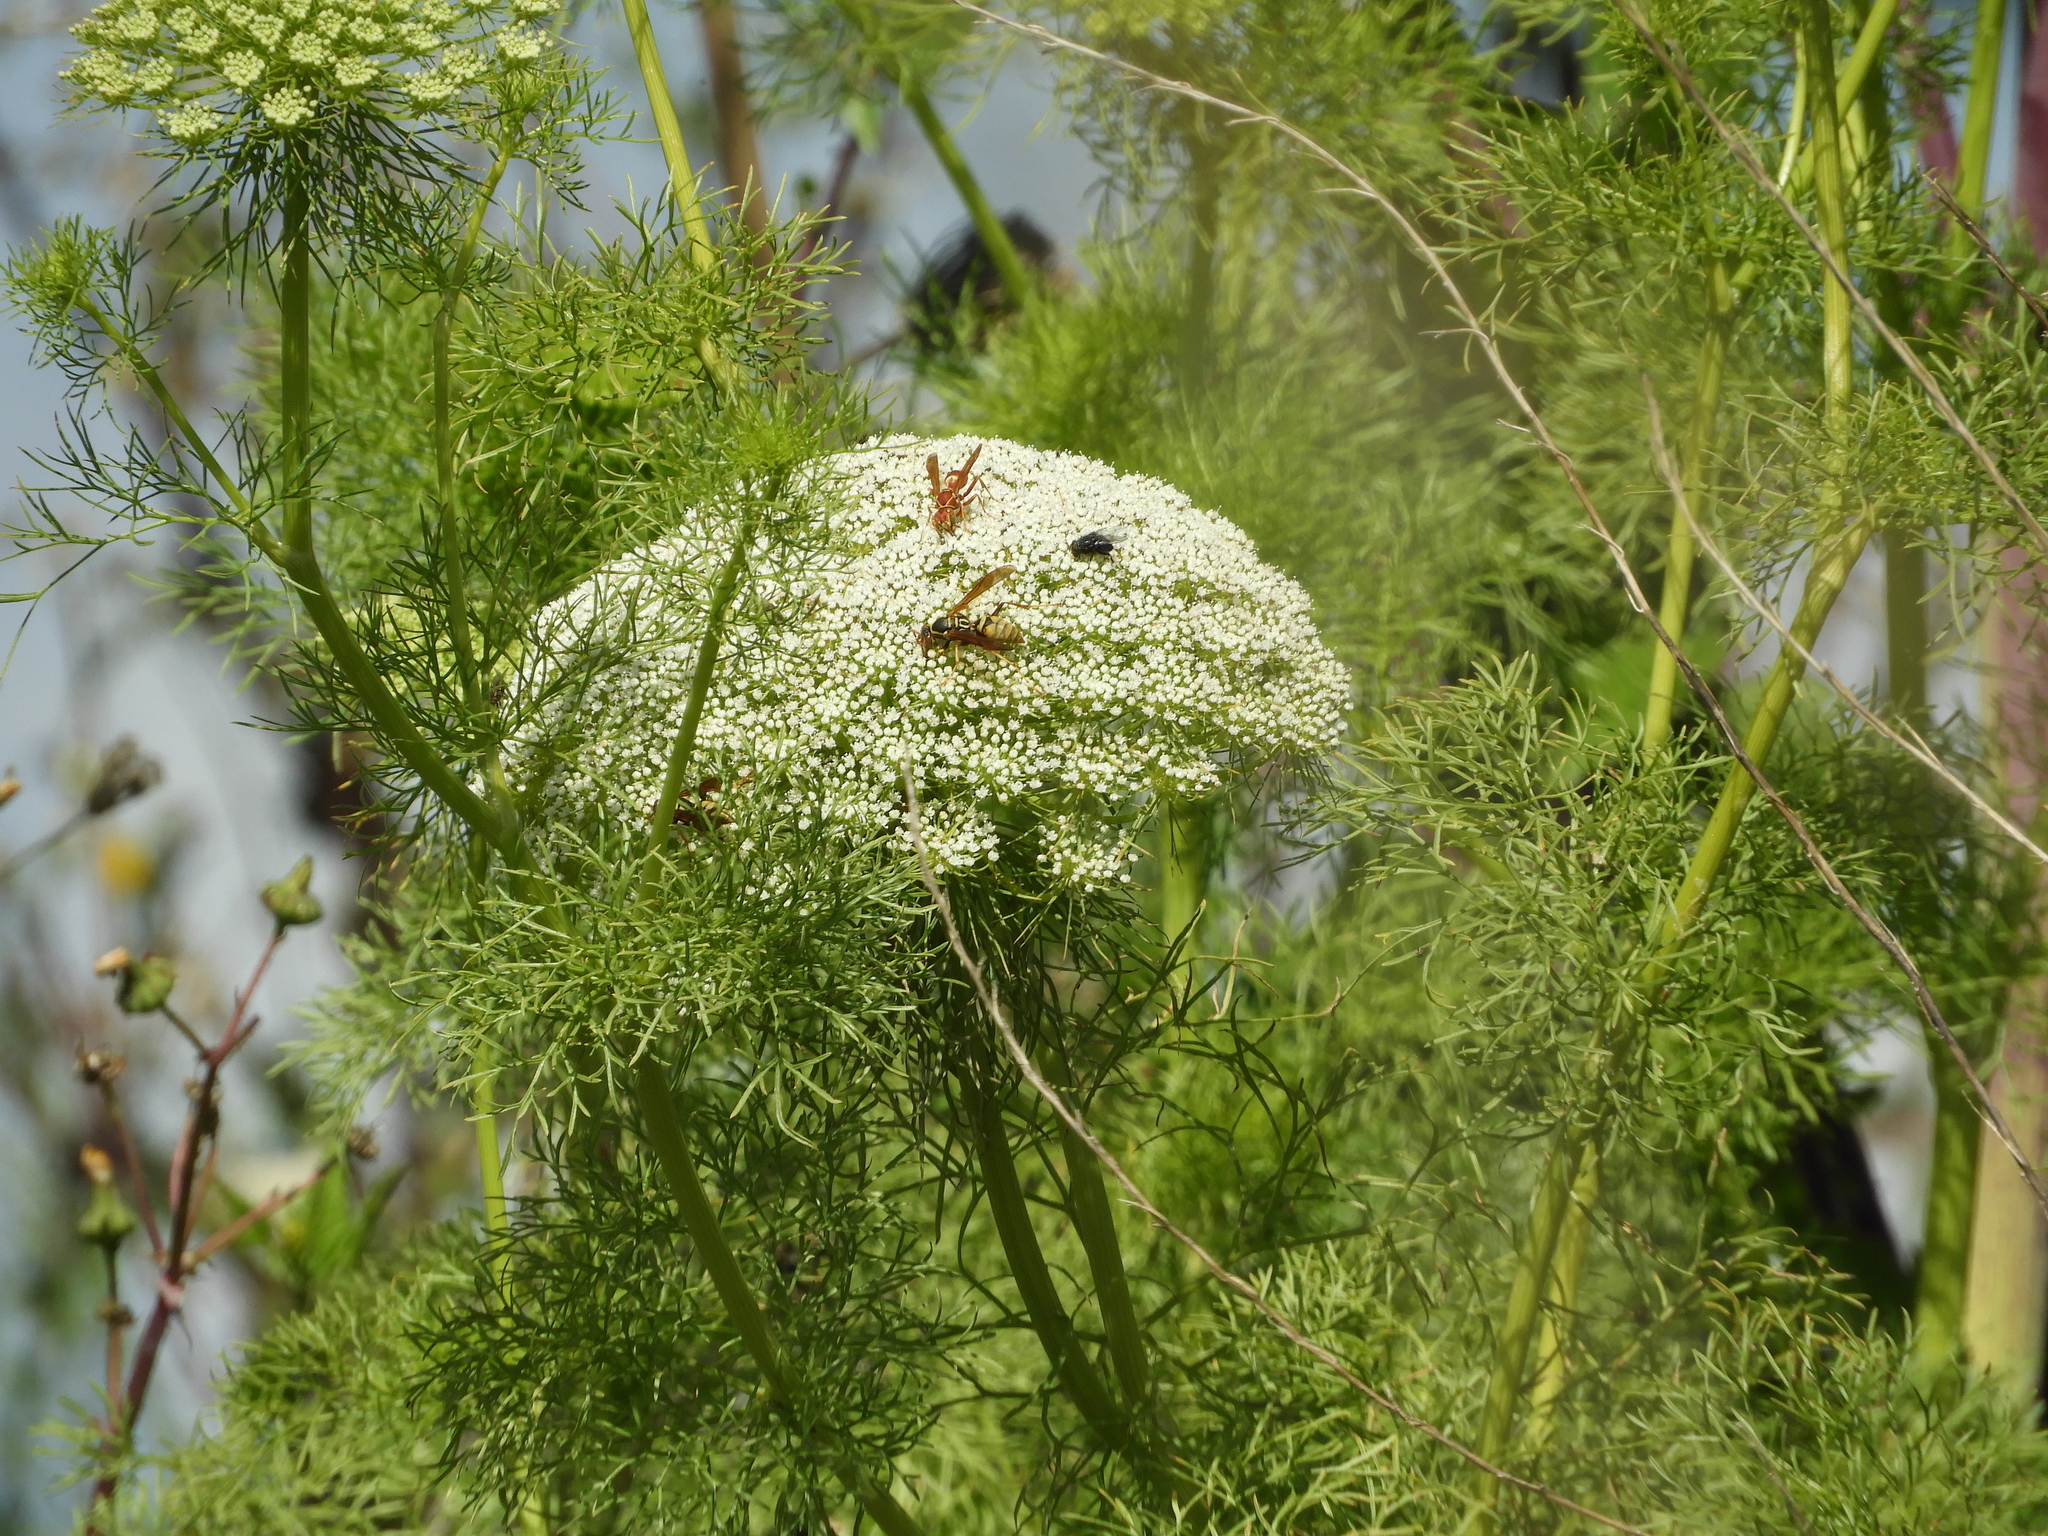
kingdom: Plantae
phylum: Tracheophyta
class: Magnoliopsida
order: Apiales
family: Apiaceae
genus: Visnaga
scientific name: Visnaga daucoides
